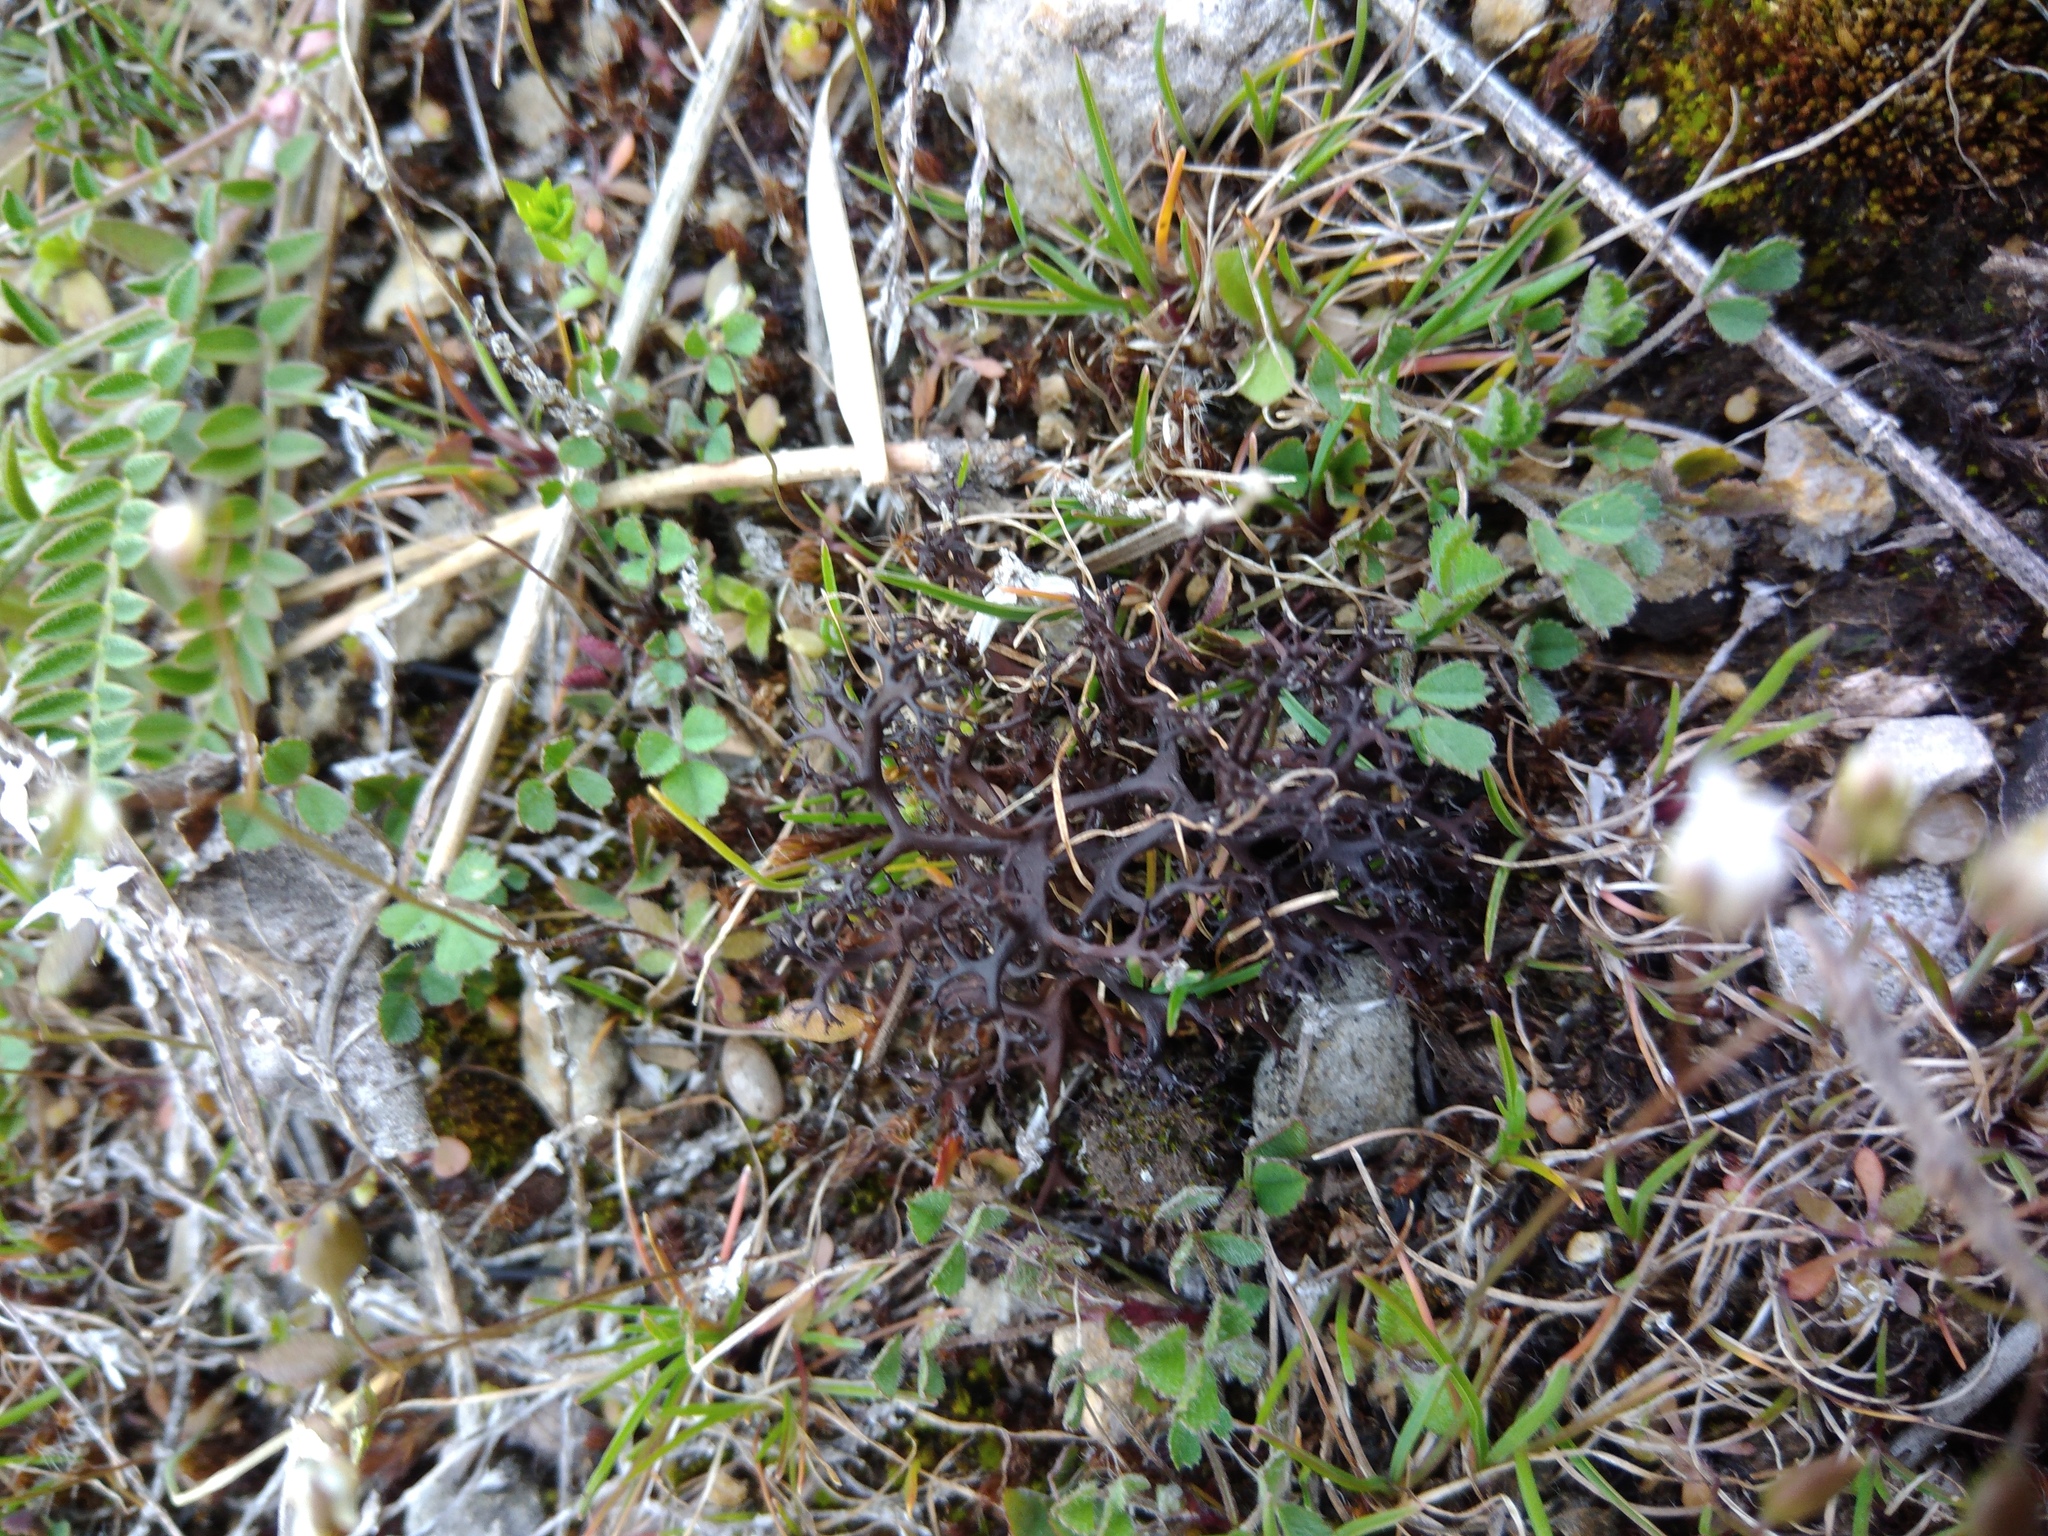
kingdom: Fungi
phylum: Ascomycota
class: Lecanoromycetes
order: Lecanorales
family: Parmeliaceae
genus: Cetraria
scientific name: Cetraria aculeata
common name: Spiny heath lichen
